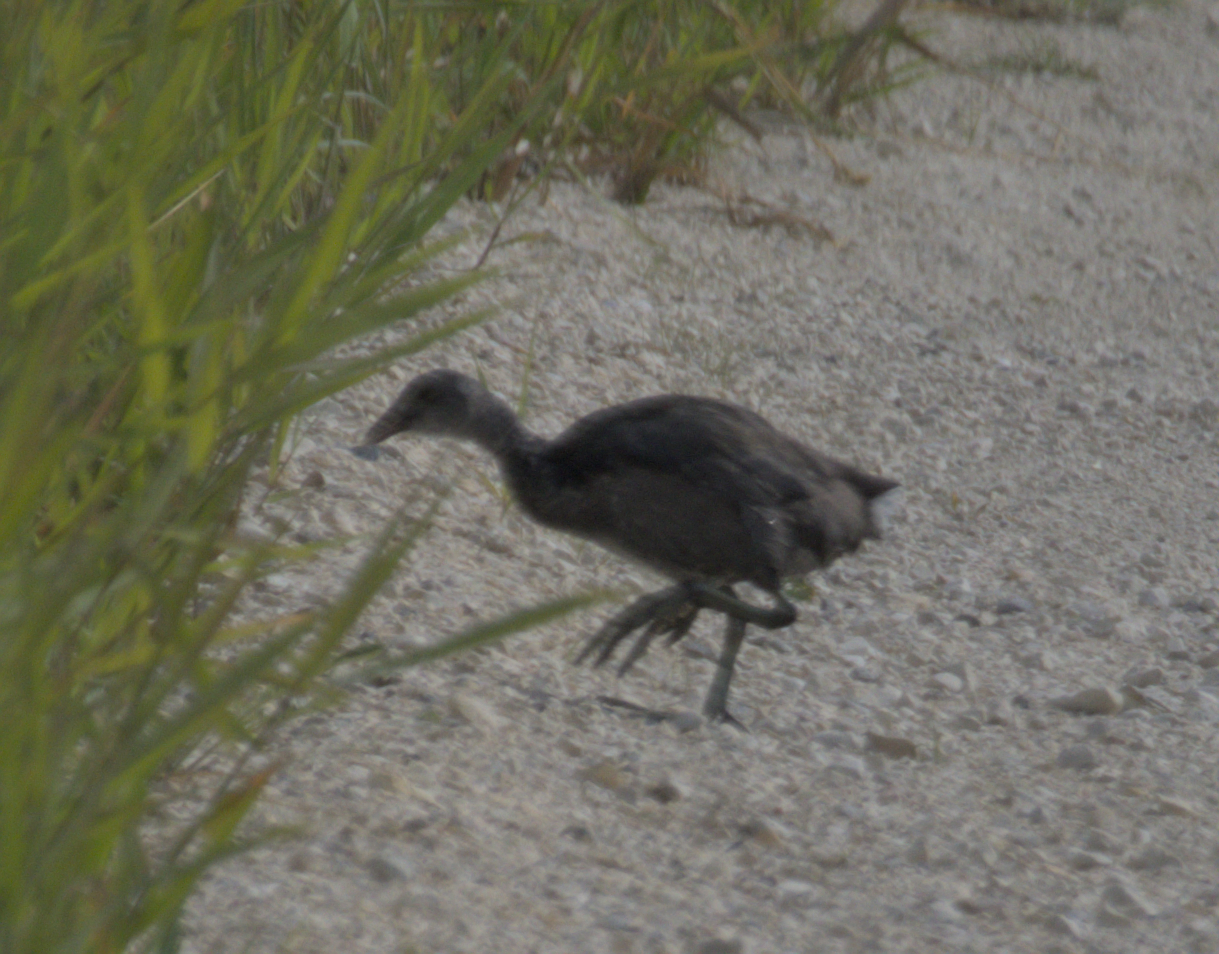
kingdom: Animalia
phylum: Chordata
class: Aves
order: Gruiformes
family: Rallidae
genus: Fulica
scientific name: Fulica americana
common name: American coot
